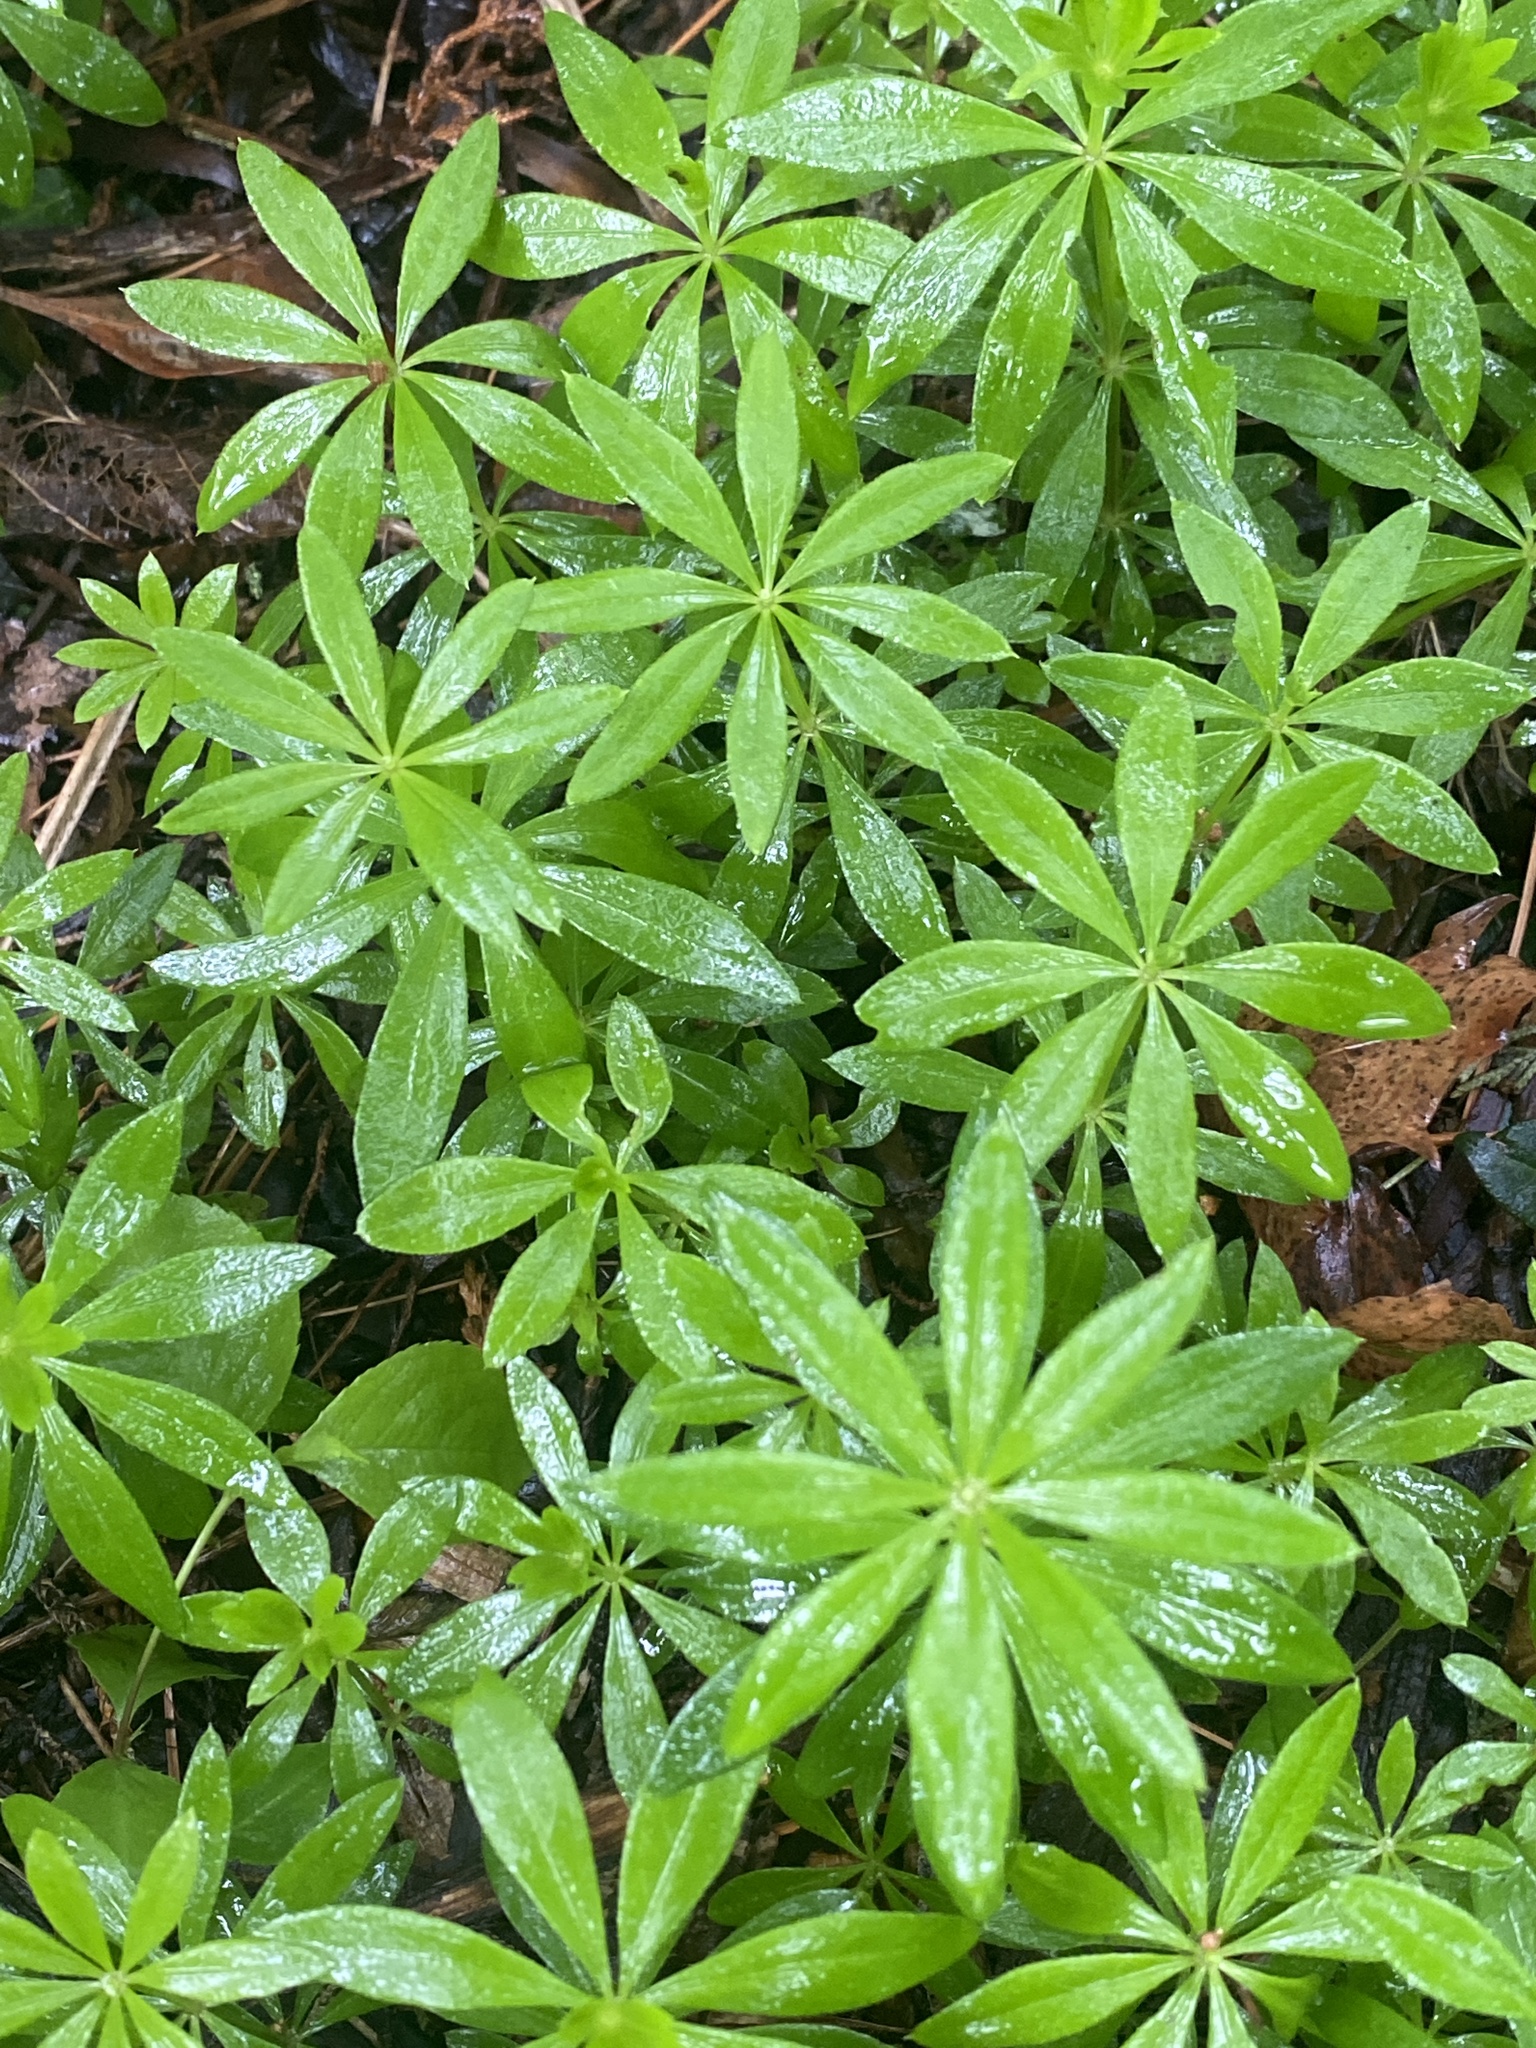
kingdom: Plantae
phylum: Tracheophyta
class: Magnoliopsida
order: Gentianales
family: Rubiaceae
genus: Galium
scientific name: Galium odoratum
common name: Sweet woodruff
